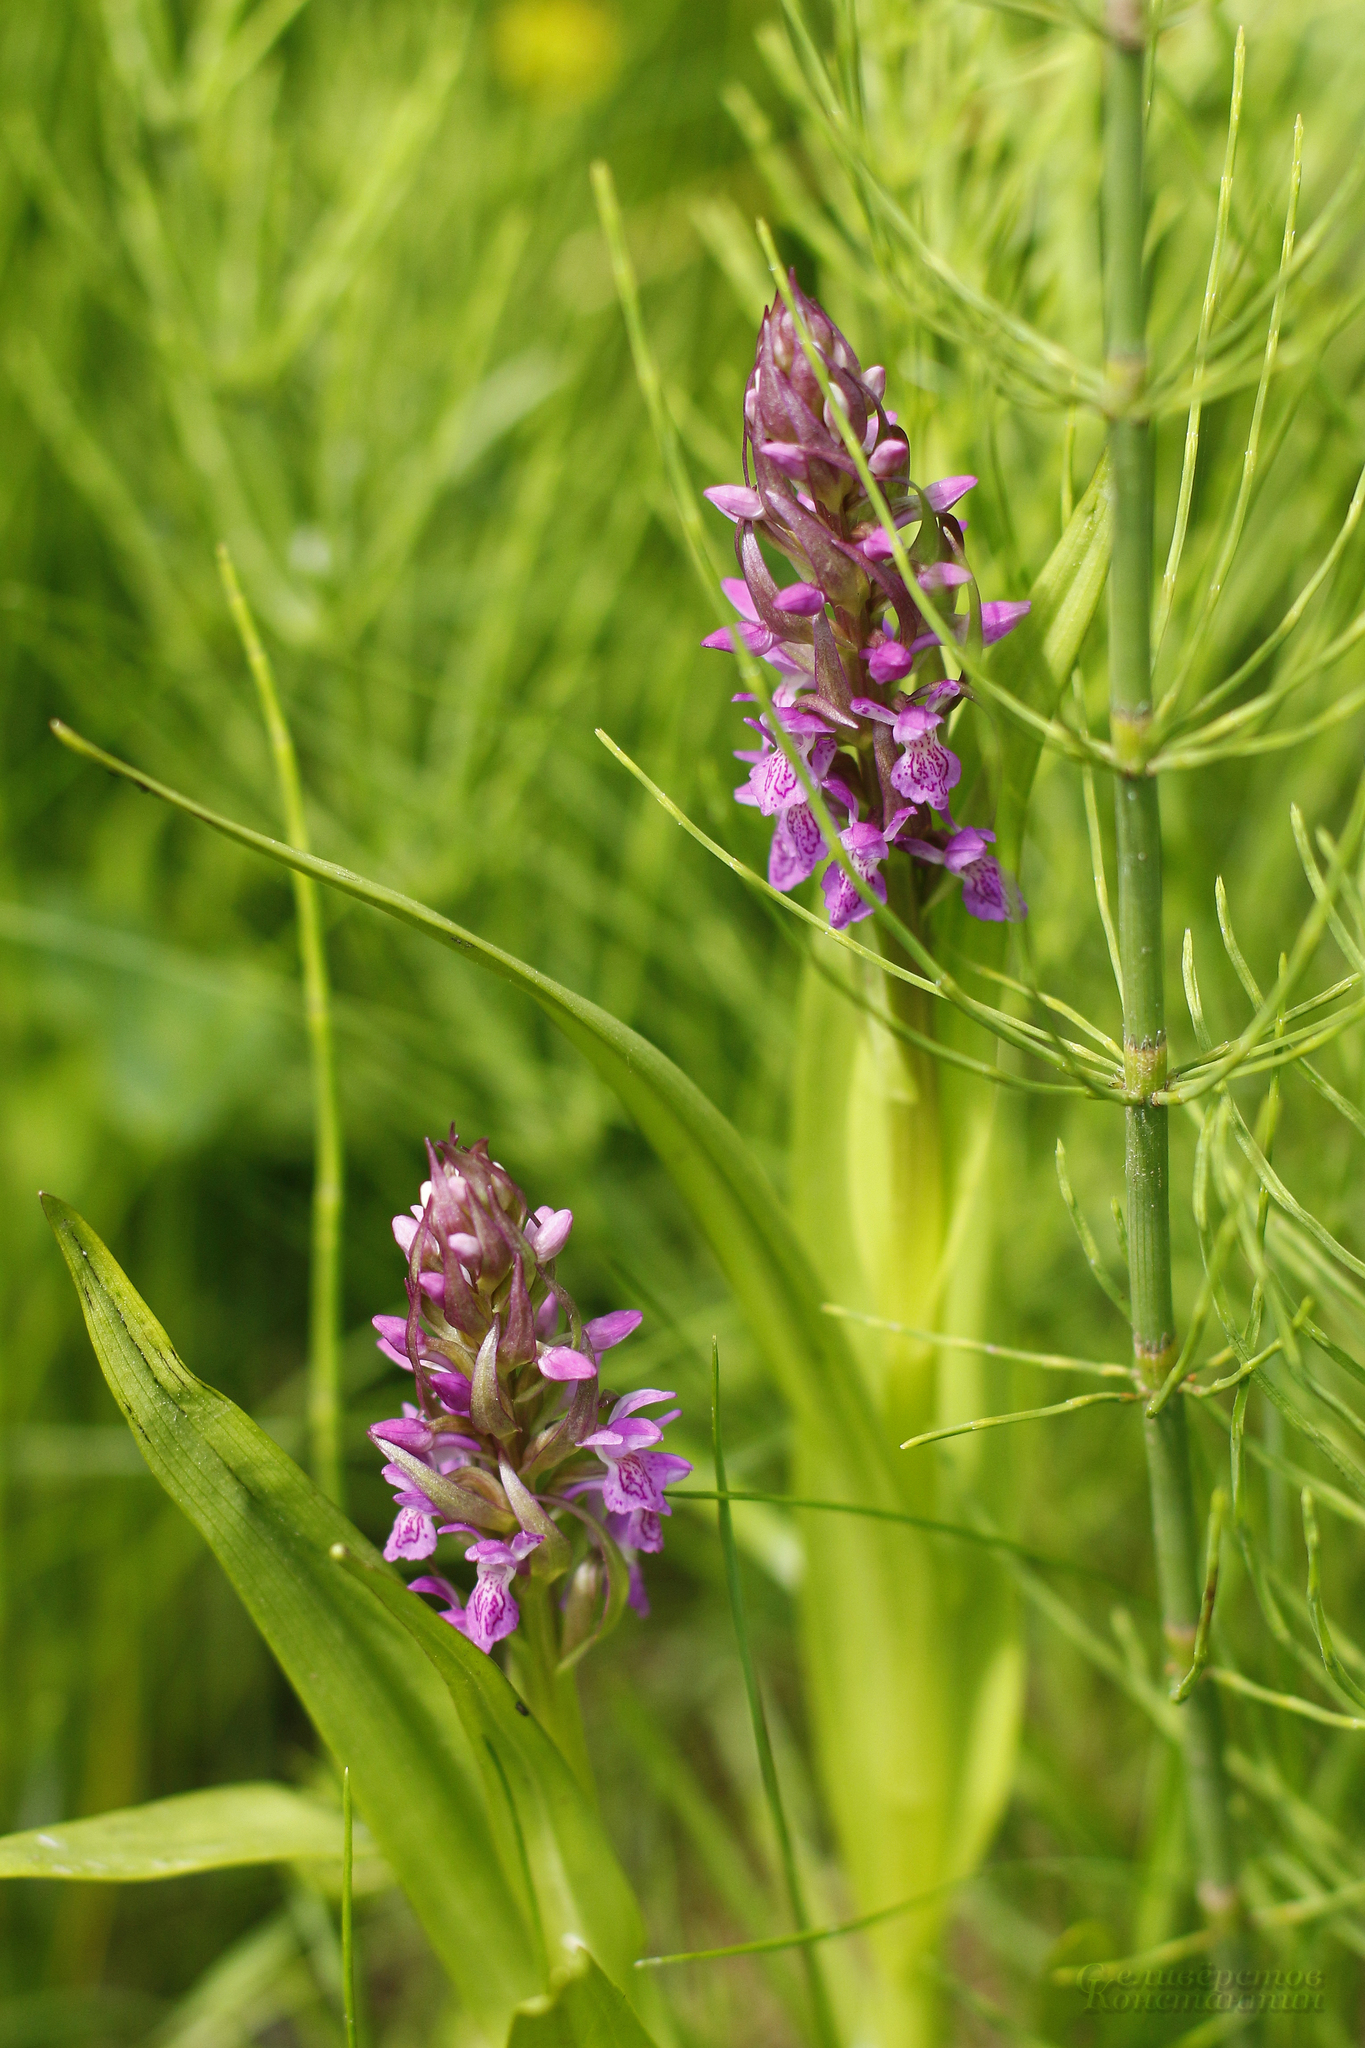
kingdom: Plantae
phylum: Tracheophyta
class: Liliopsida
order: Asparagales
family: Orchidaceae
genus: Dactylorhiza
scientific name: Dactylorhiza incarnata
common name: Early marsh-orchid
